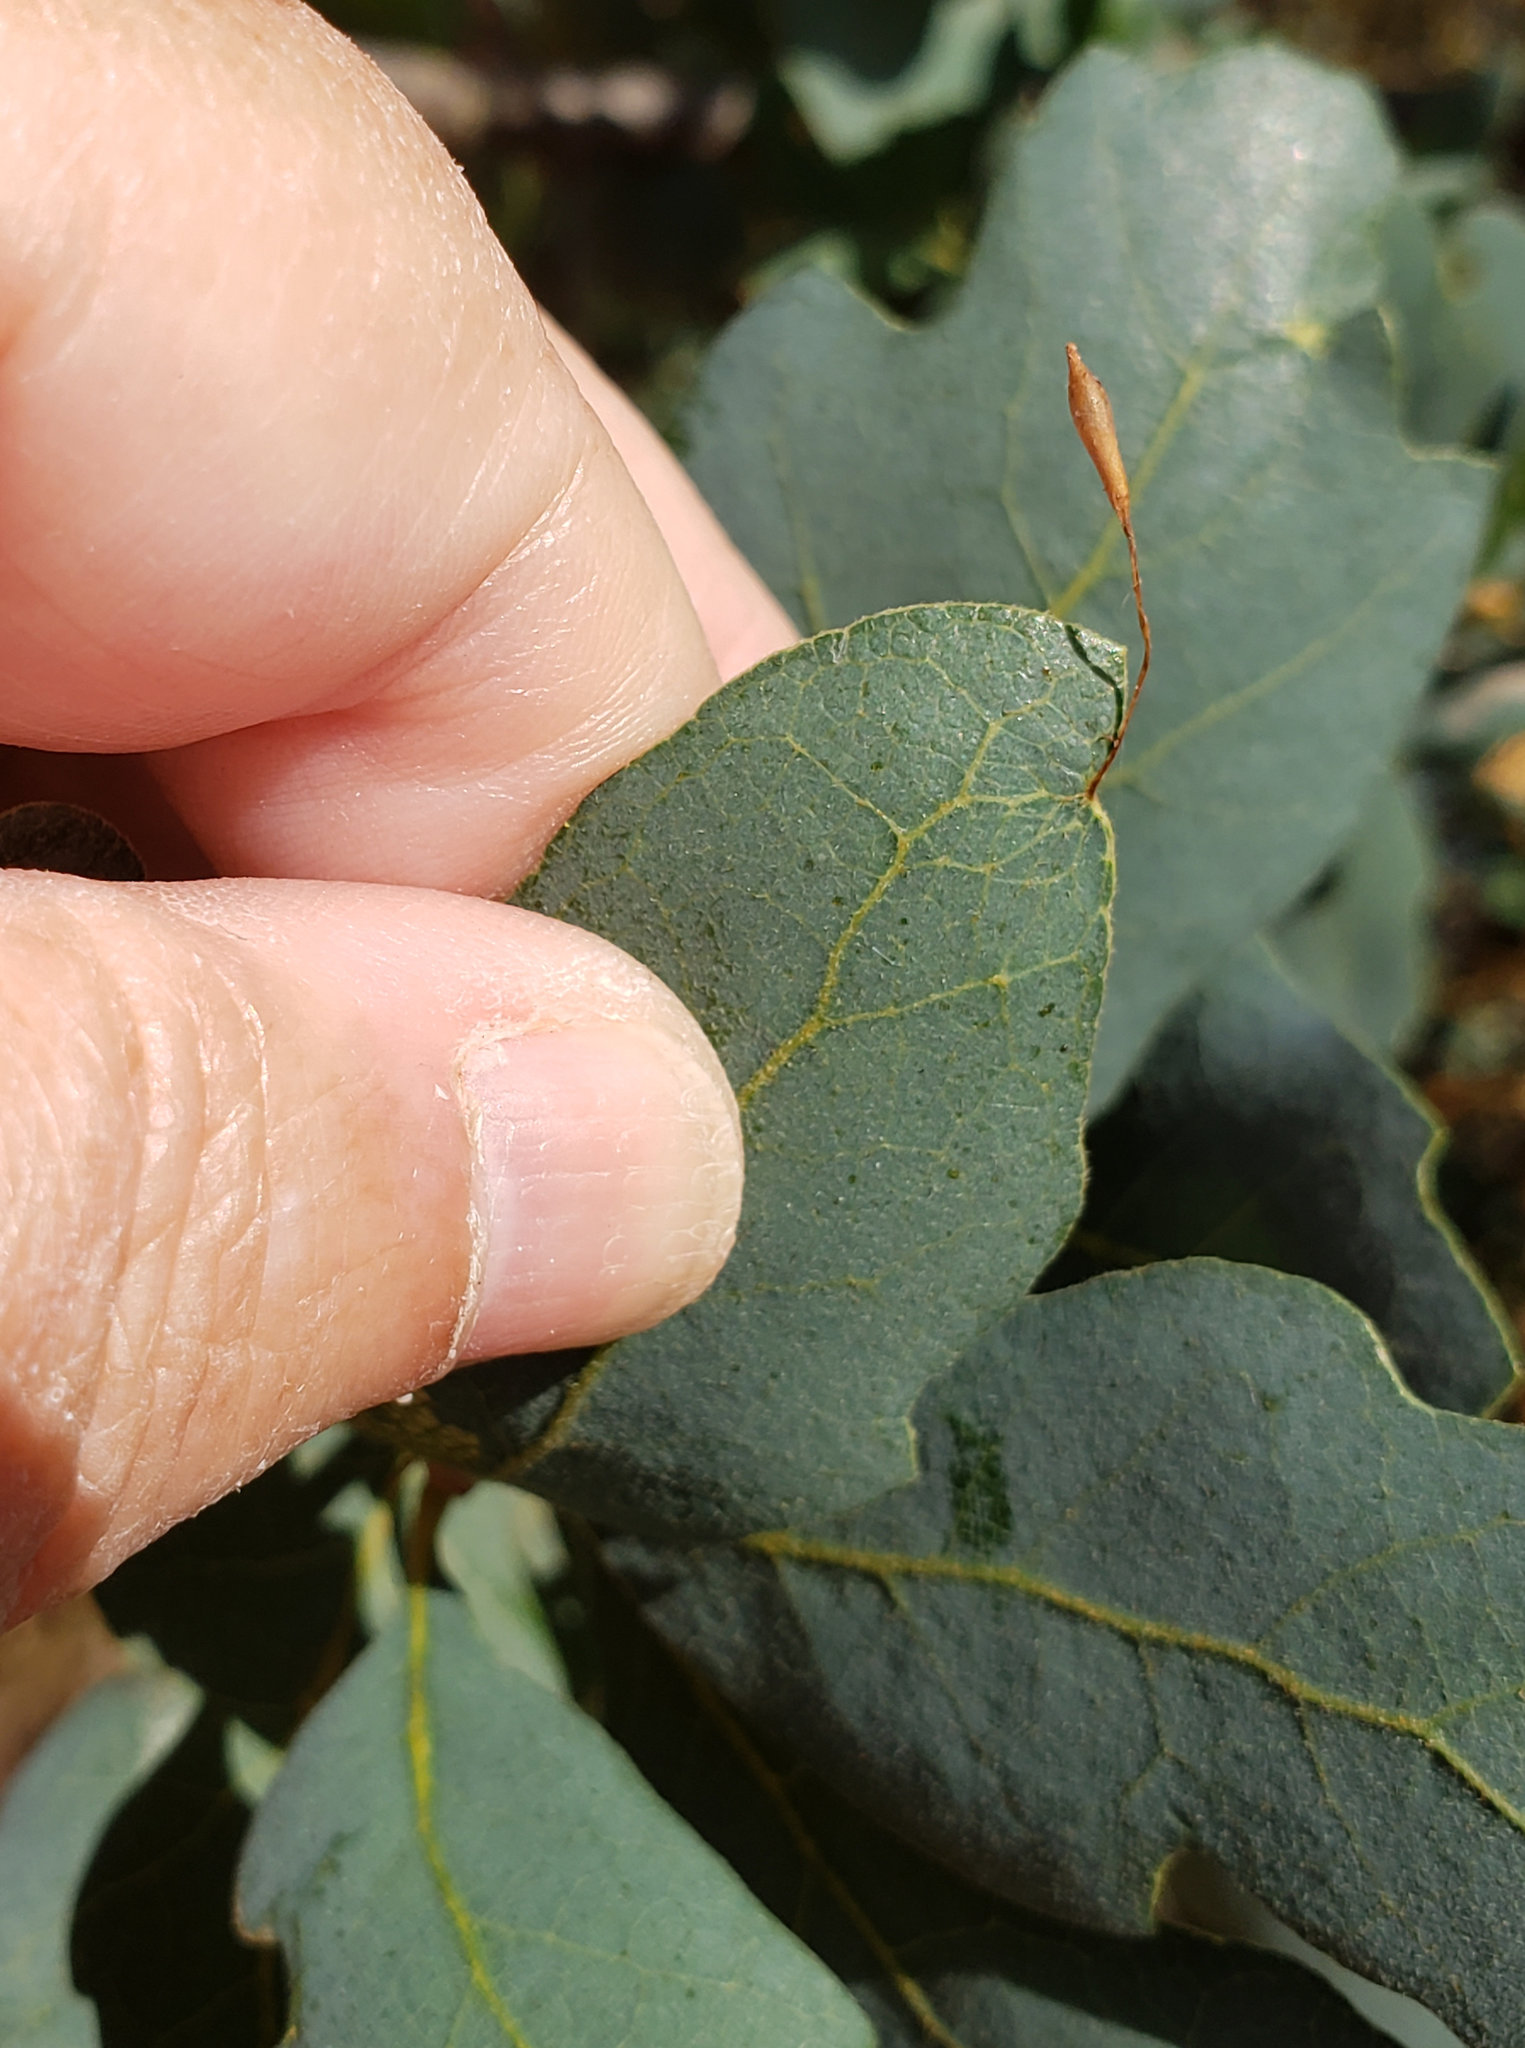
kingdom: Animalia
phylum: Arthropoda
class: Insecta
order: Hymenoptera
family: Cynipidae
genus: Andricus
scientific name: Andricus
